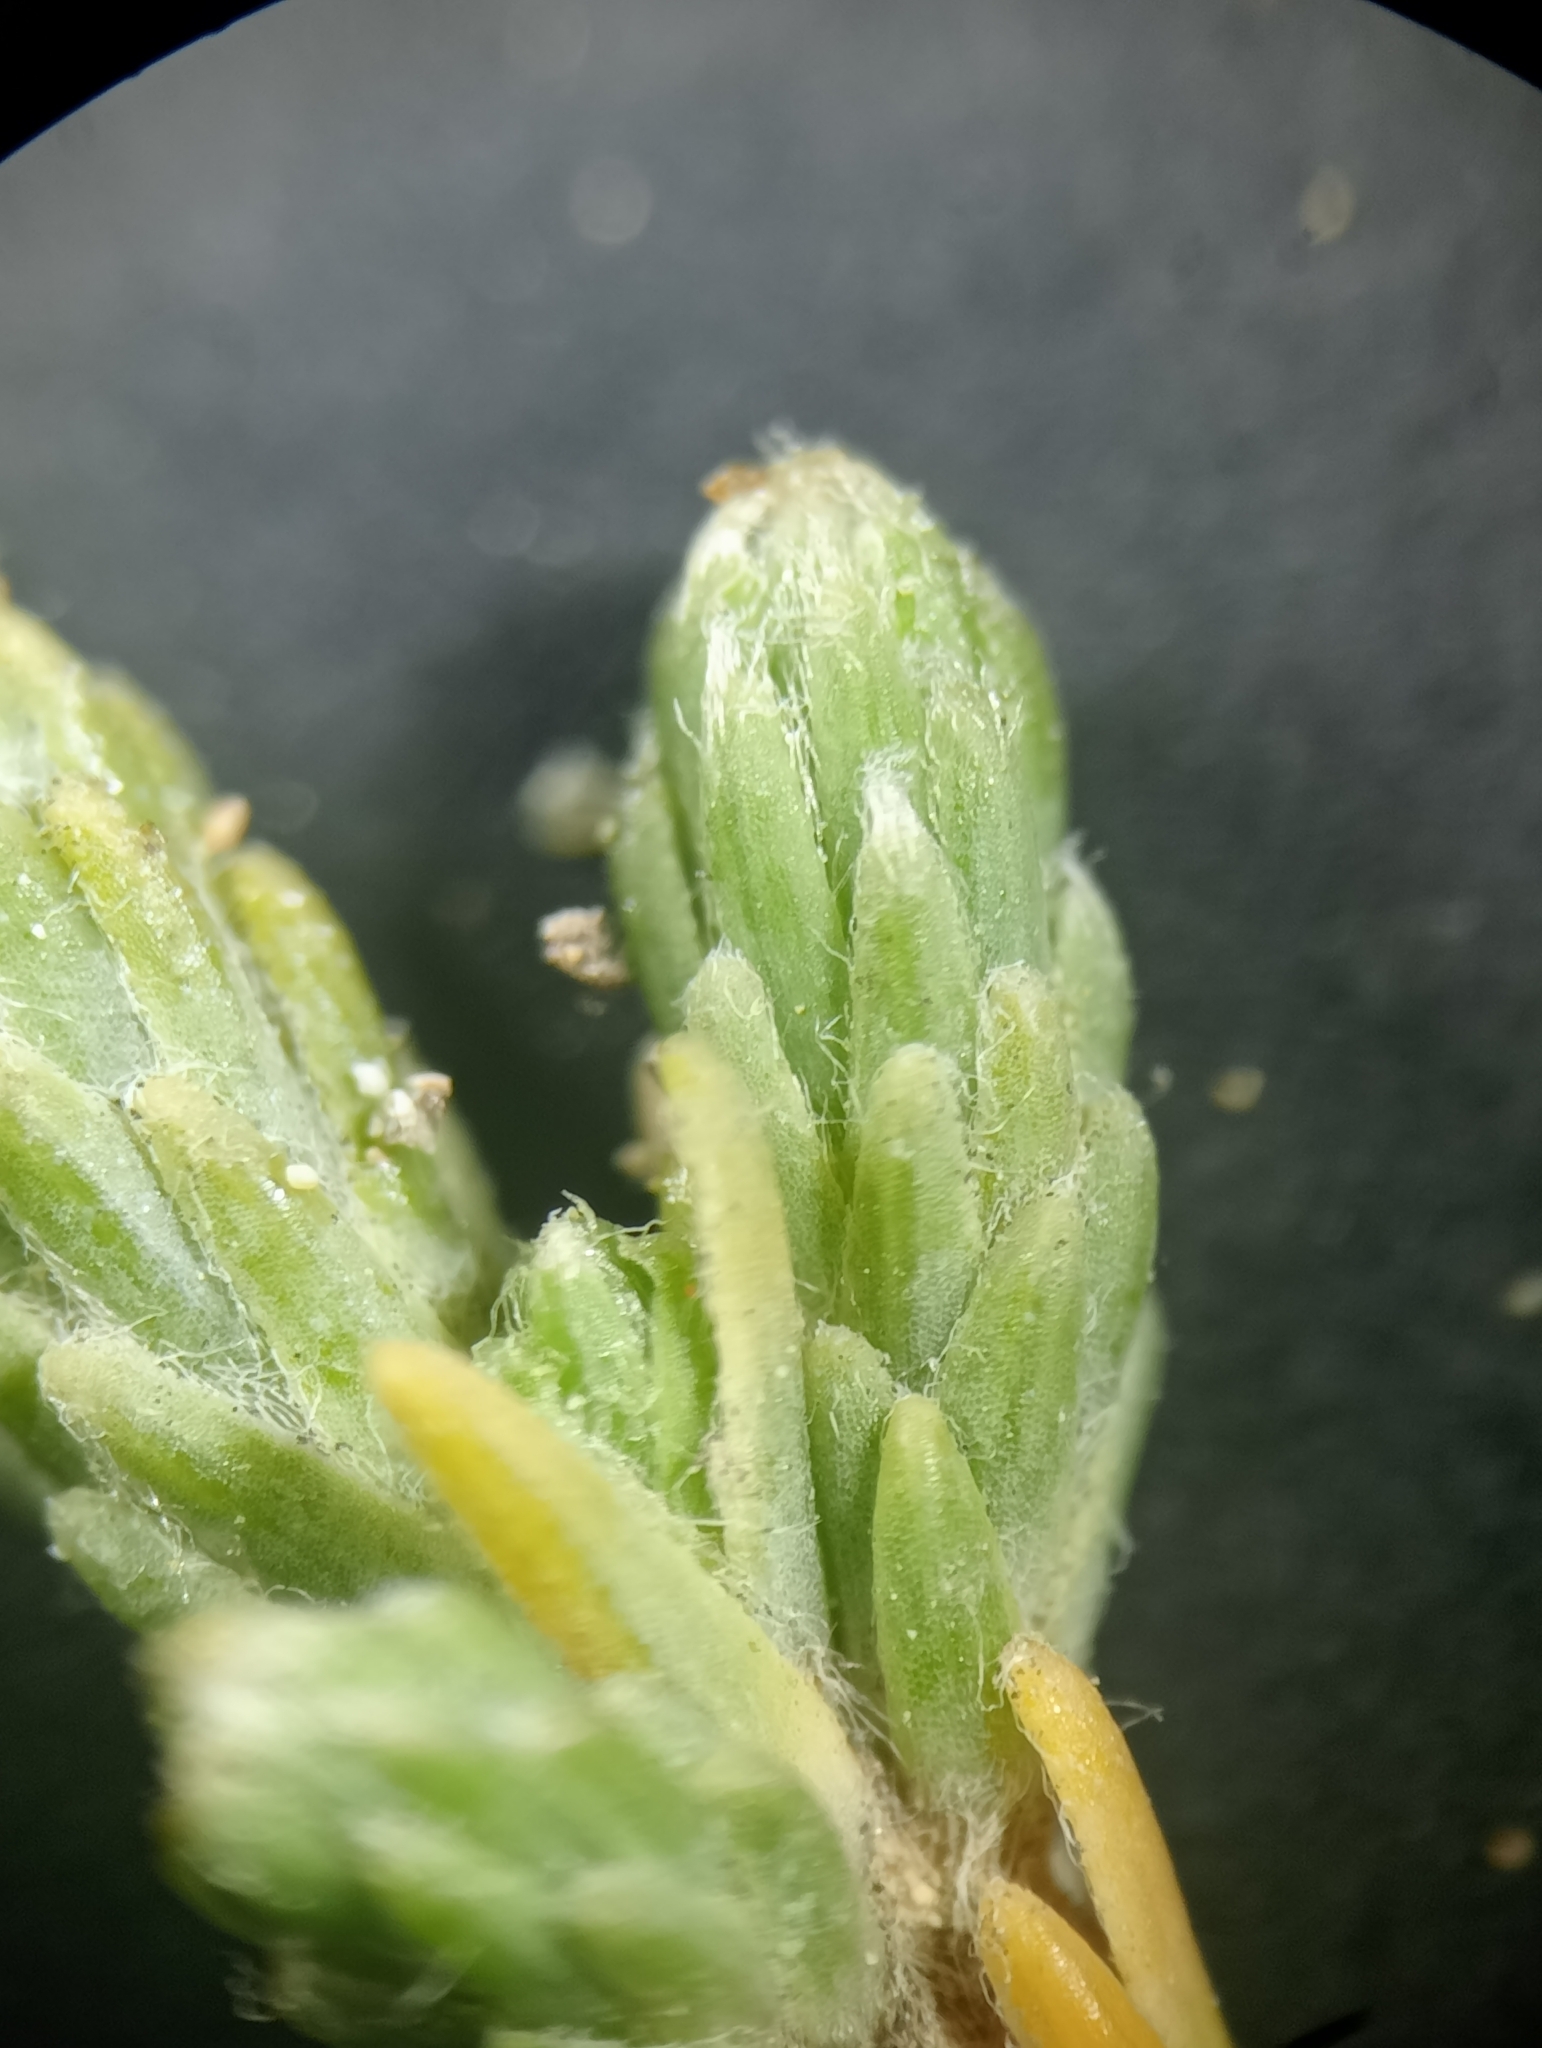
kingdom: Plantae
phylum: Tracheophyta
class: Magnoliopsida
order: Malvales
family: Thymelaeaceae
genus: Kelleria
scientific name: Kelleria villosa
